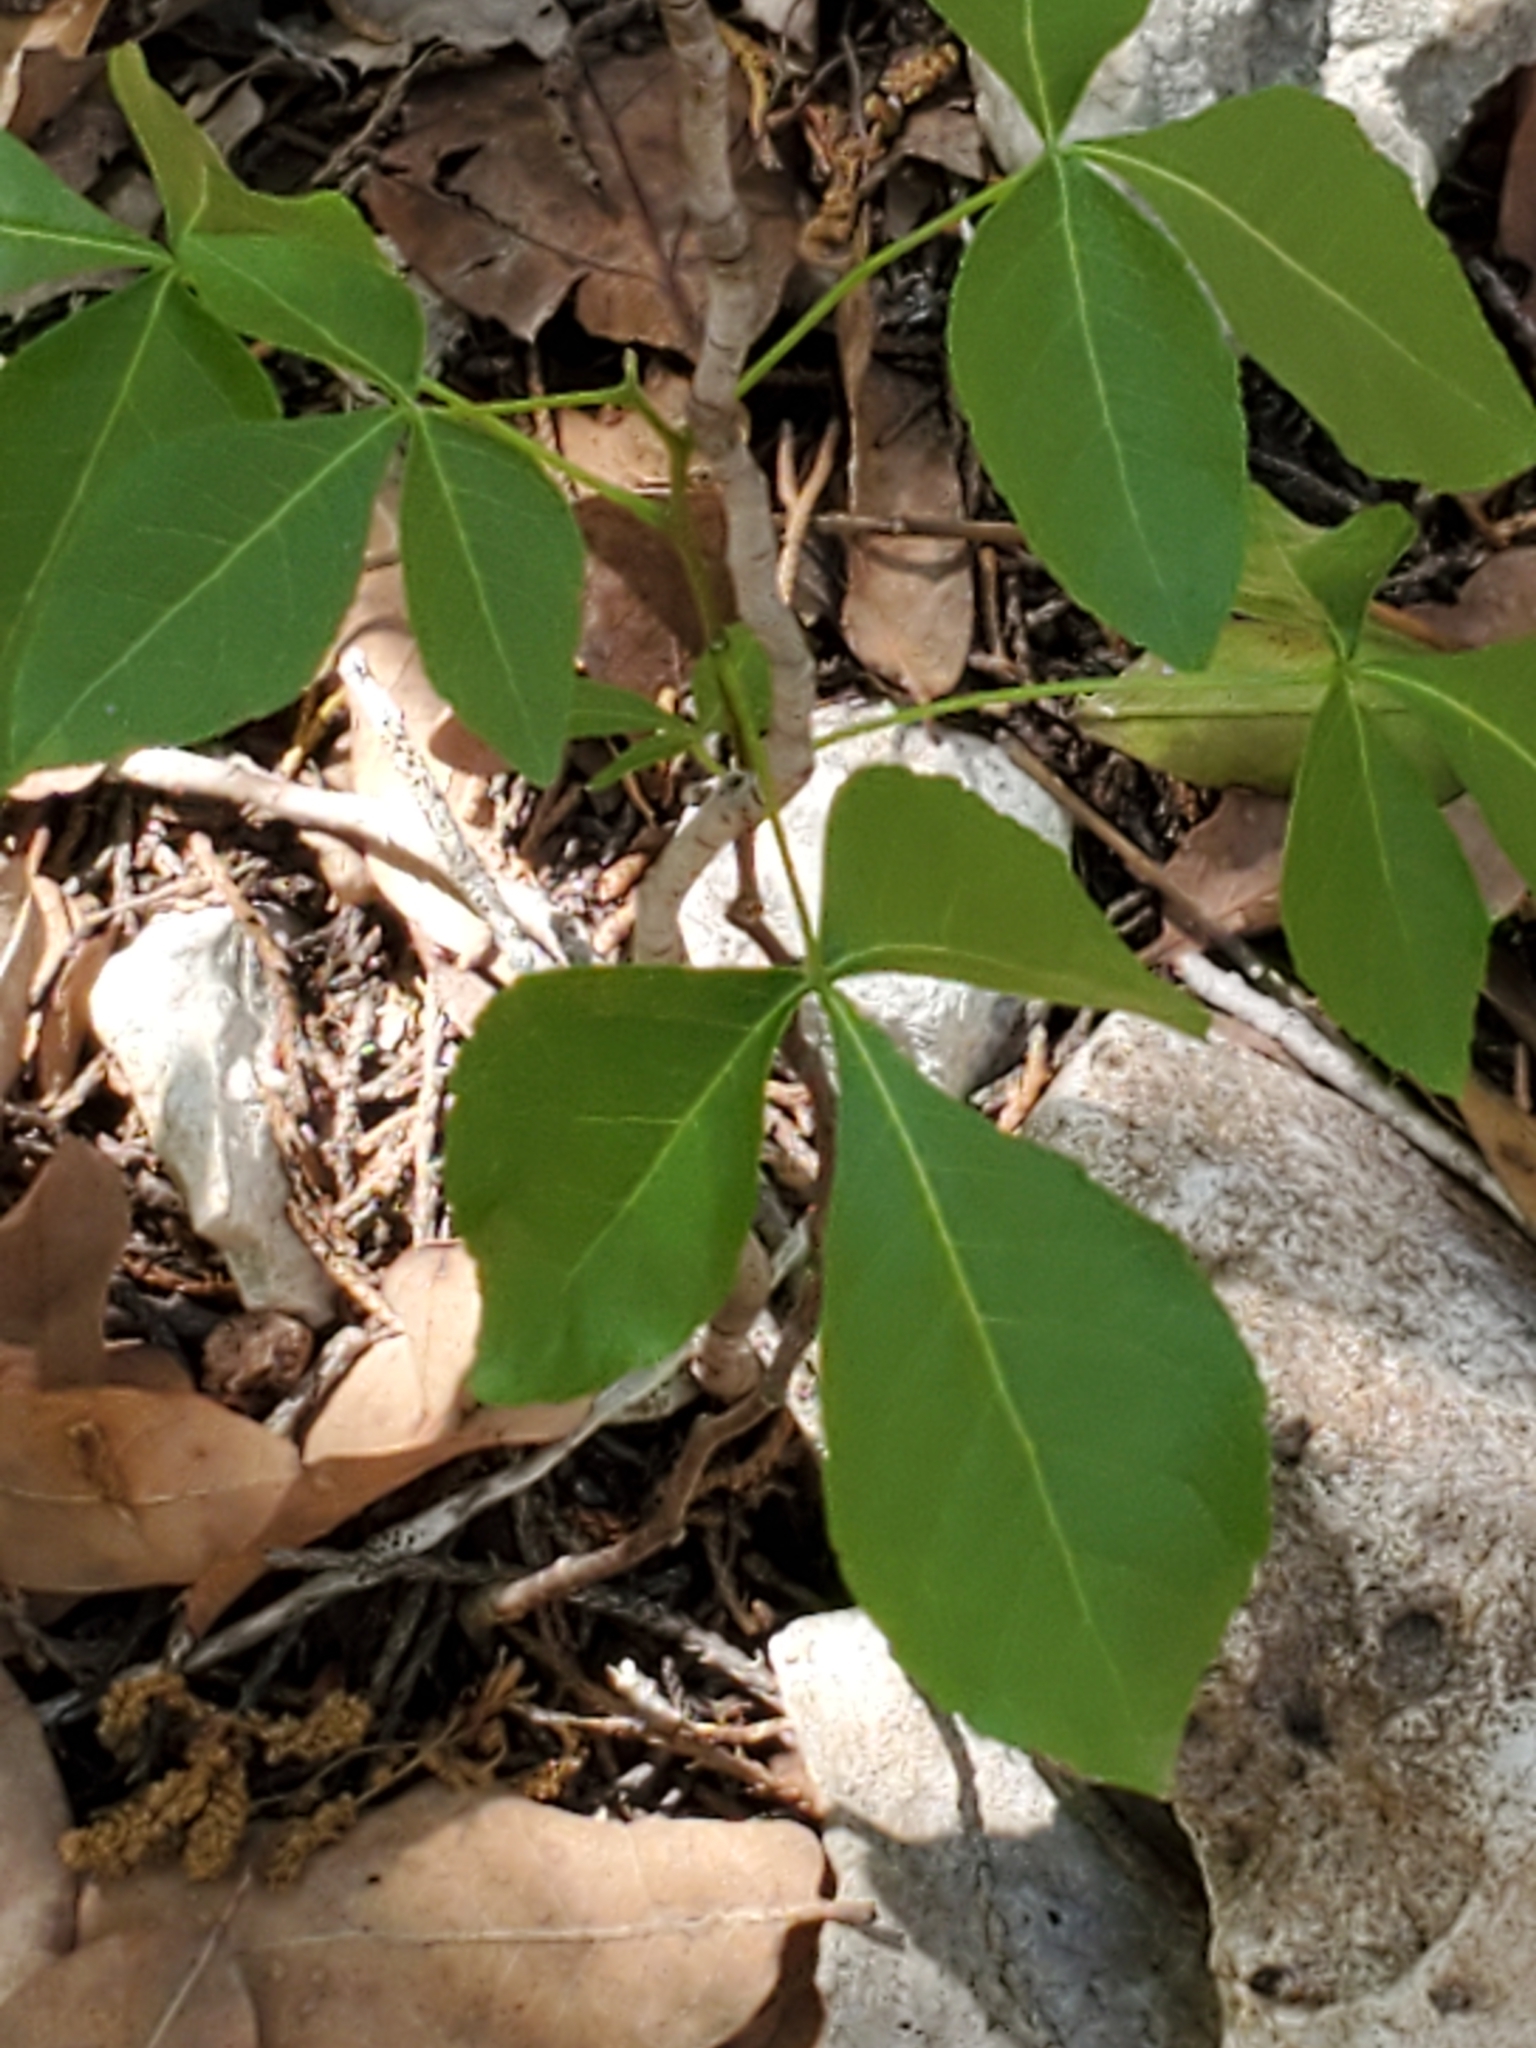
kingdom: Plantae
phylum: Tracheophyta
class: Magnoliopsida
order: Sapindales
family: Rutaceae
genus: Ptelea
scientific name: Ptelea trifoliata
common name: Common hop-tree
